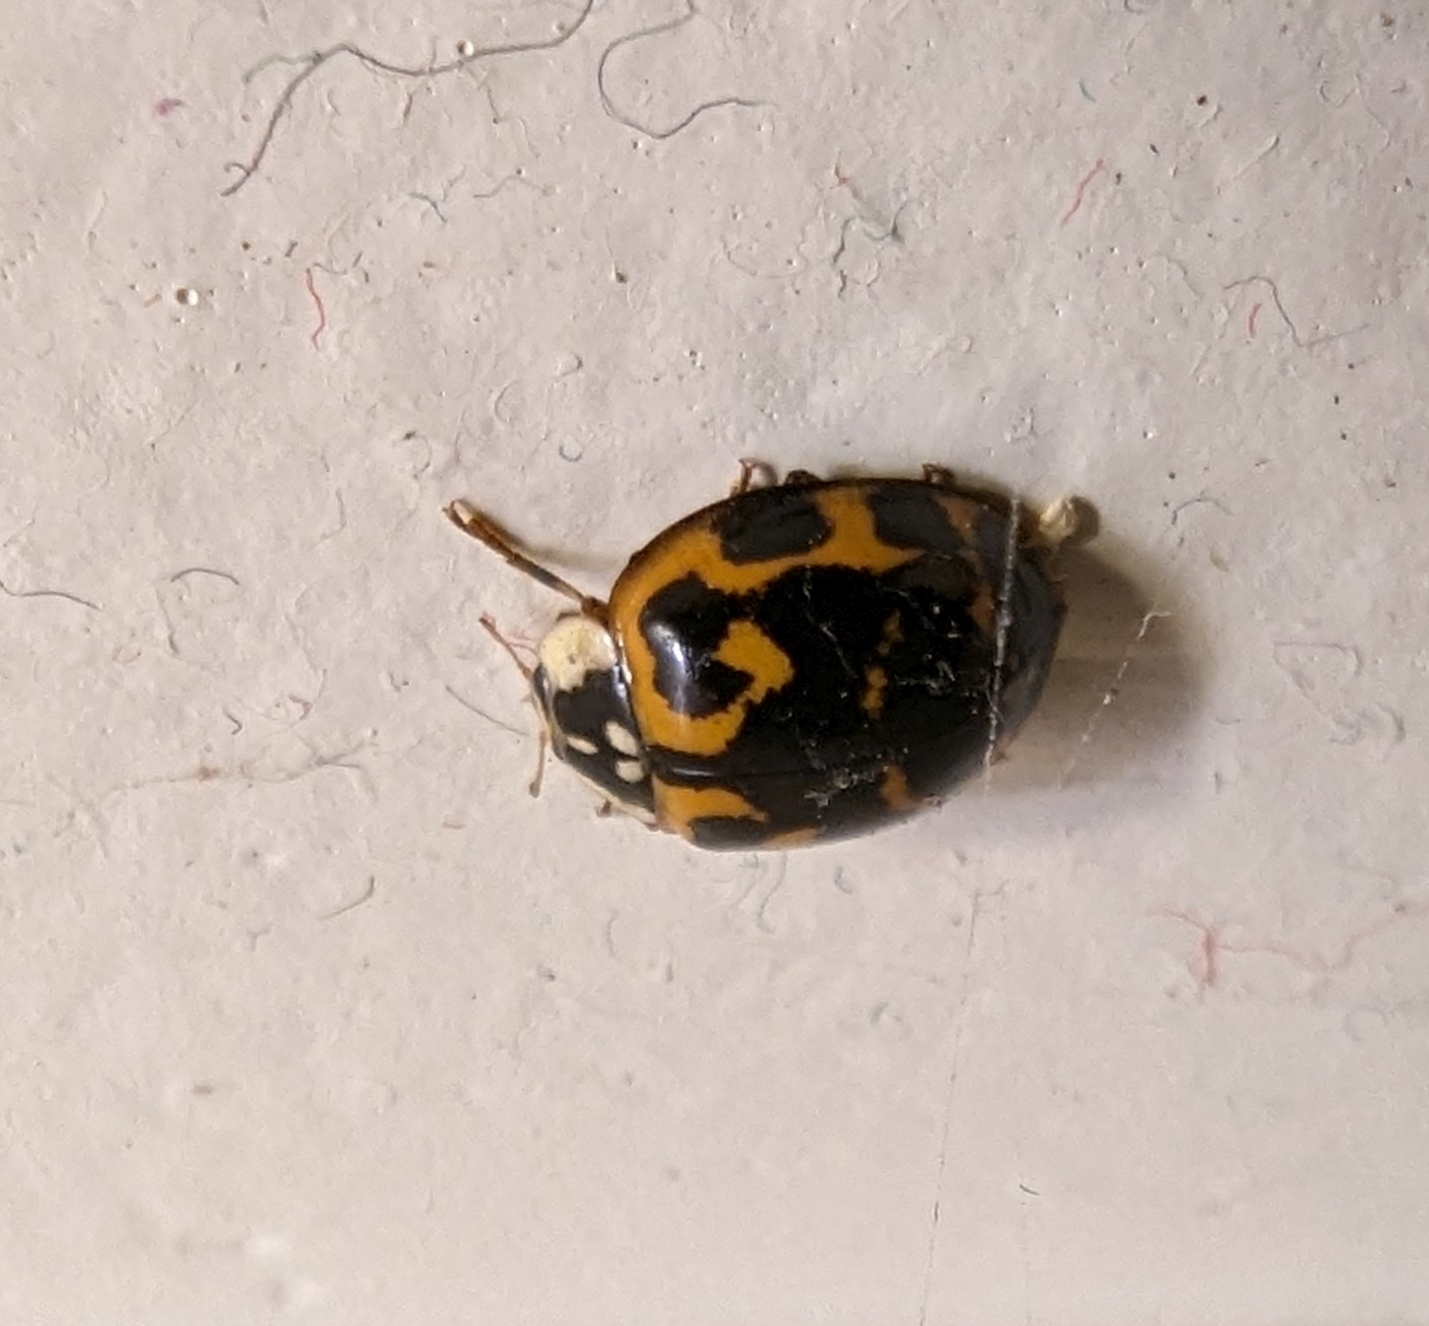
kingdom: Animalia
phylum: Arthropoda
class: Insecta
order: Coleoptera
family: Coccinellidae
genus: Harmonia
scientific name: Harmonia axyridis
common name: Harlequin ladybird
